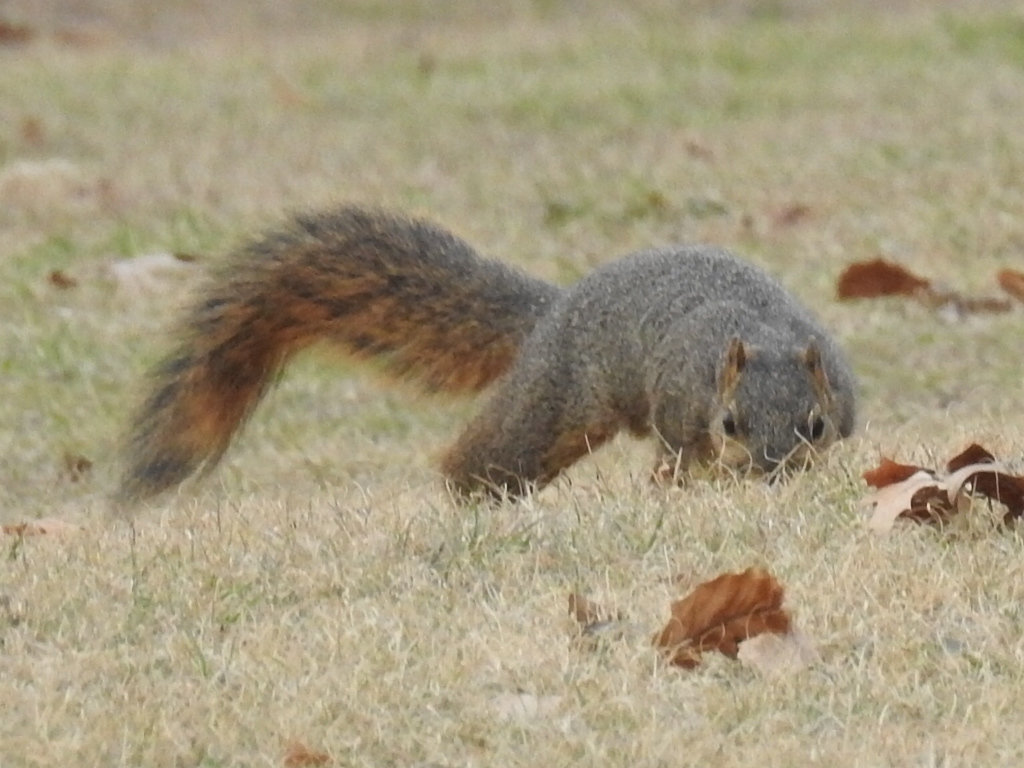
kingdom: Animalia
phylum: Chordata
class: Mammalia
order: Rodentia
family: Sciuridae
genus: Sciurus
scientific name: Sciurus niger
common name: Fox squirrel
